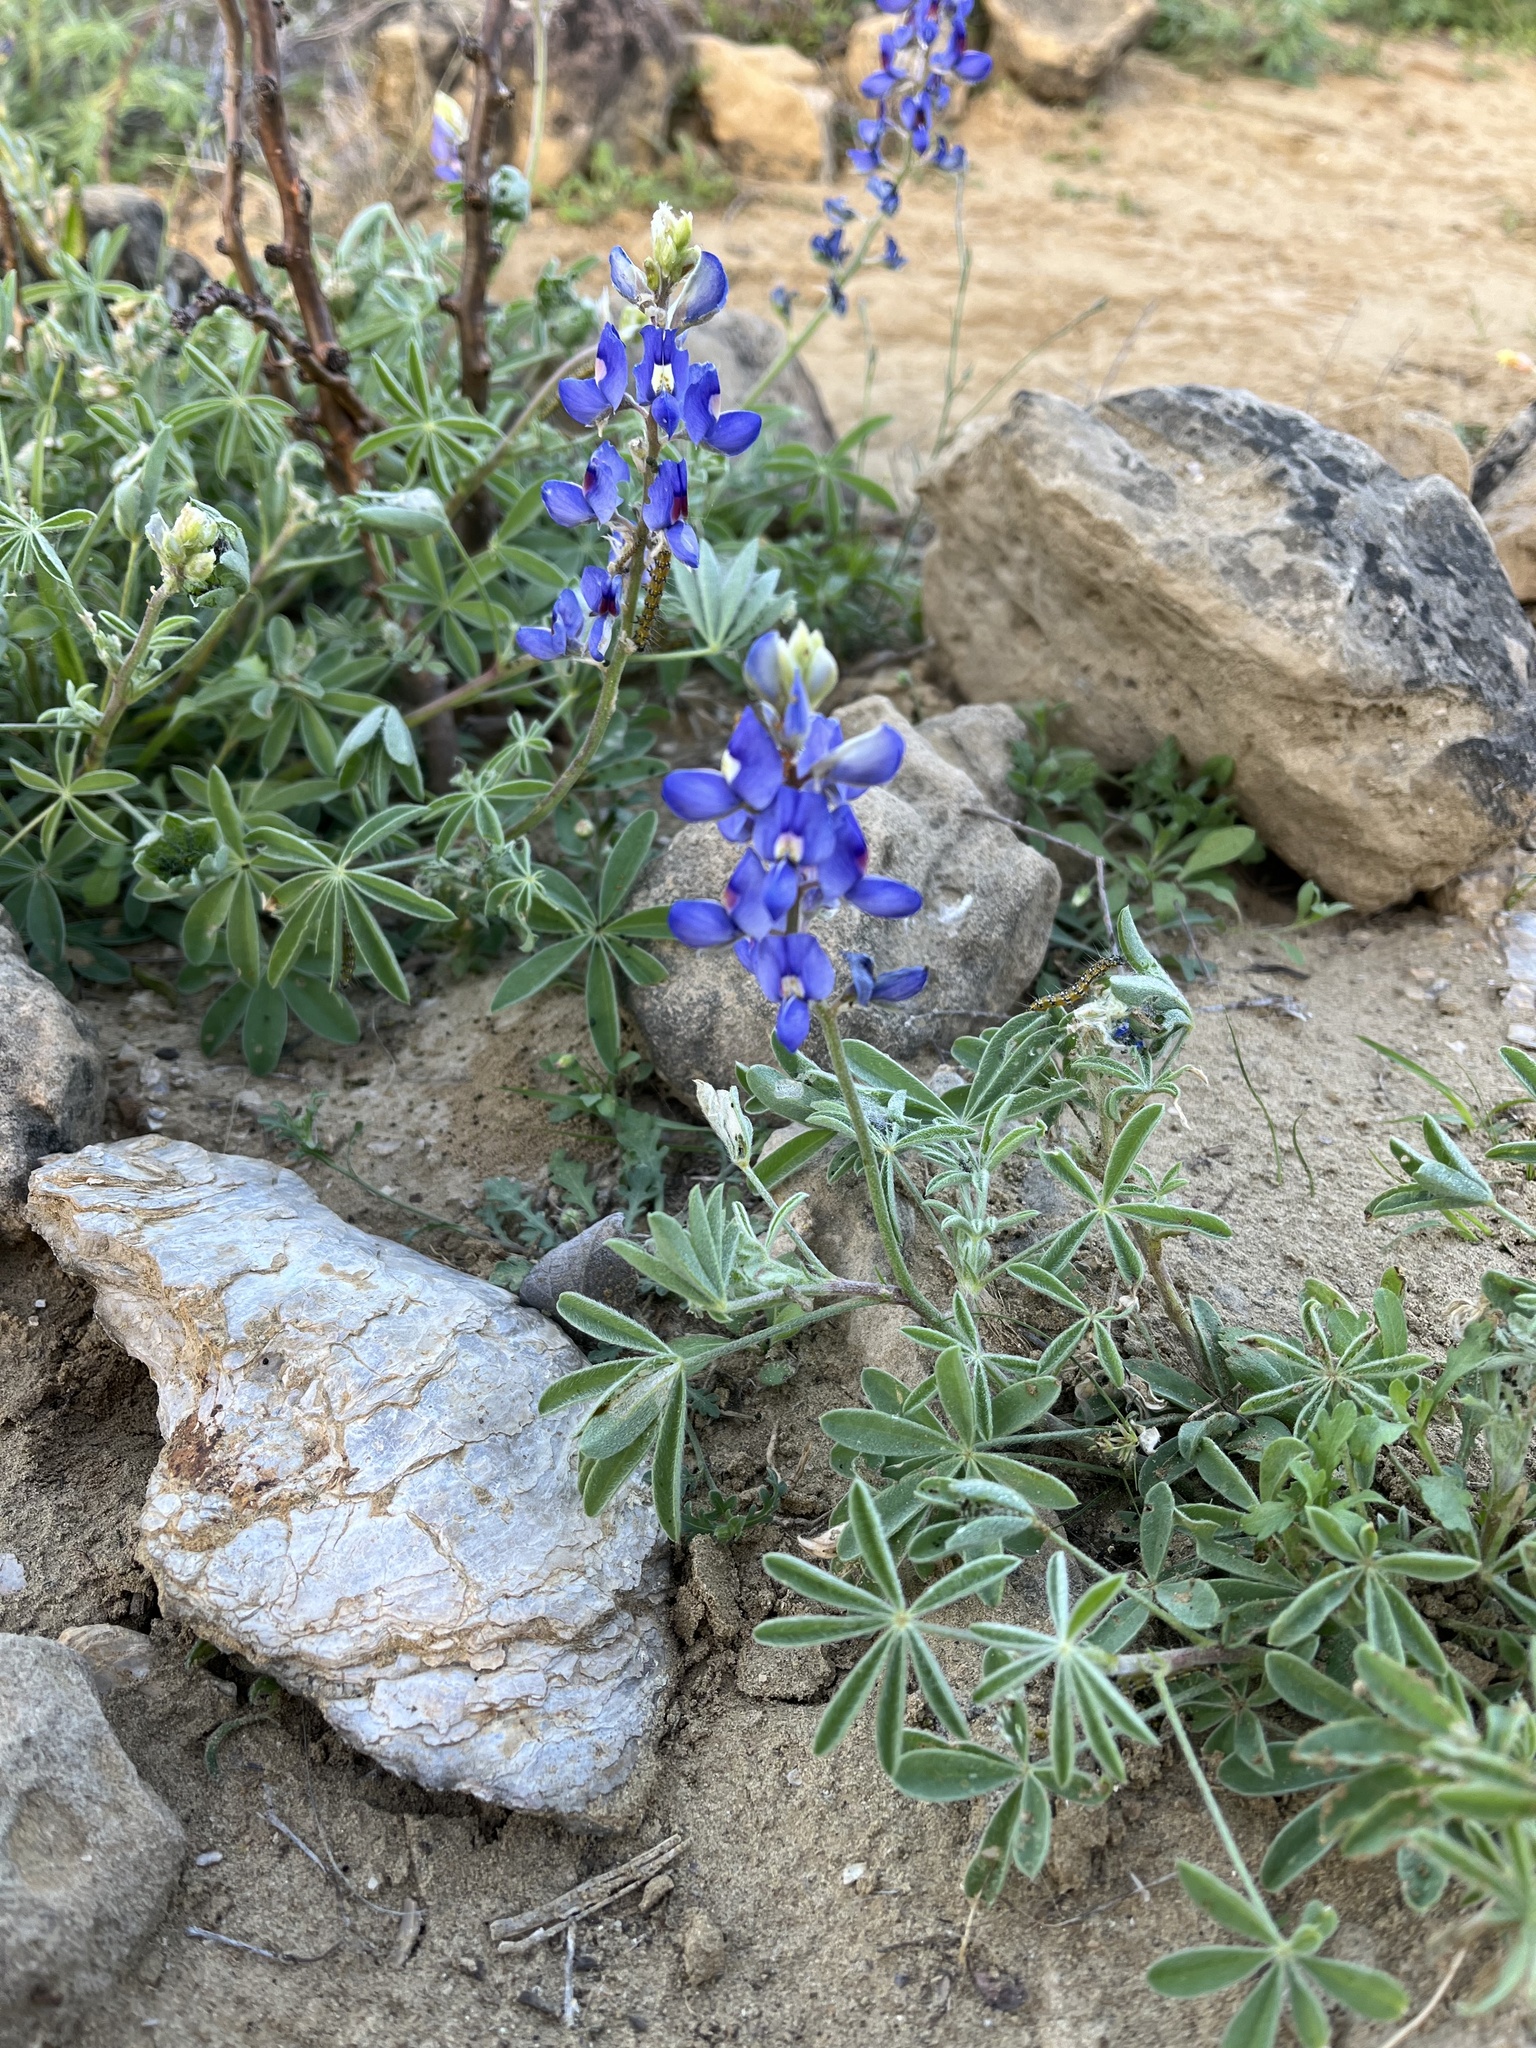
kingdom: Plantae
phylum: Tracheophyta
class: Magnoliopsida
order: Fabales
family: Fabaceae
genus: Lupinus
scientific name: Lupinus texensis
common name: Texas bluebonnet
